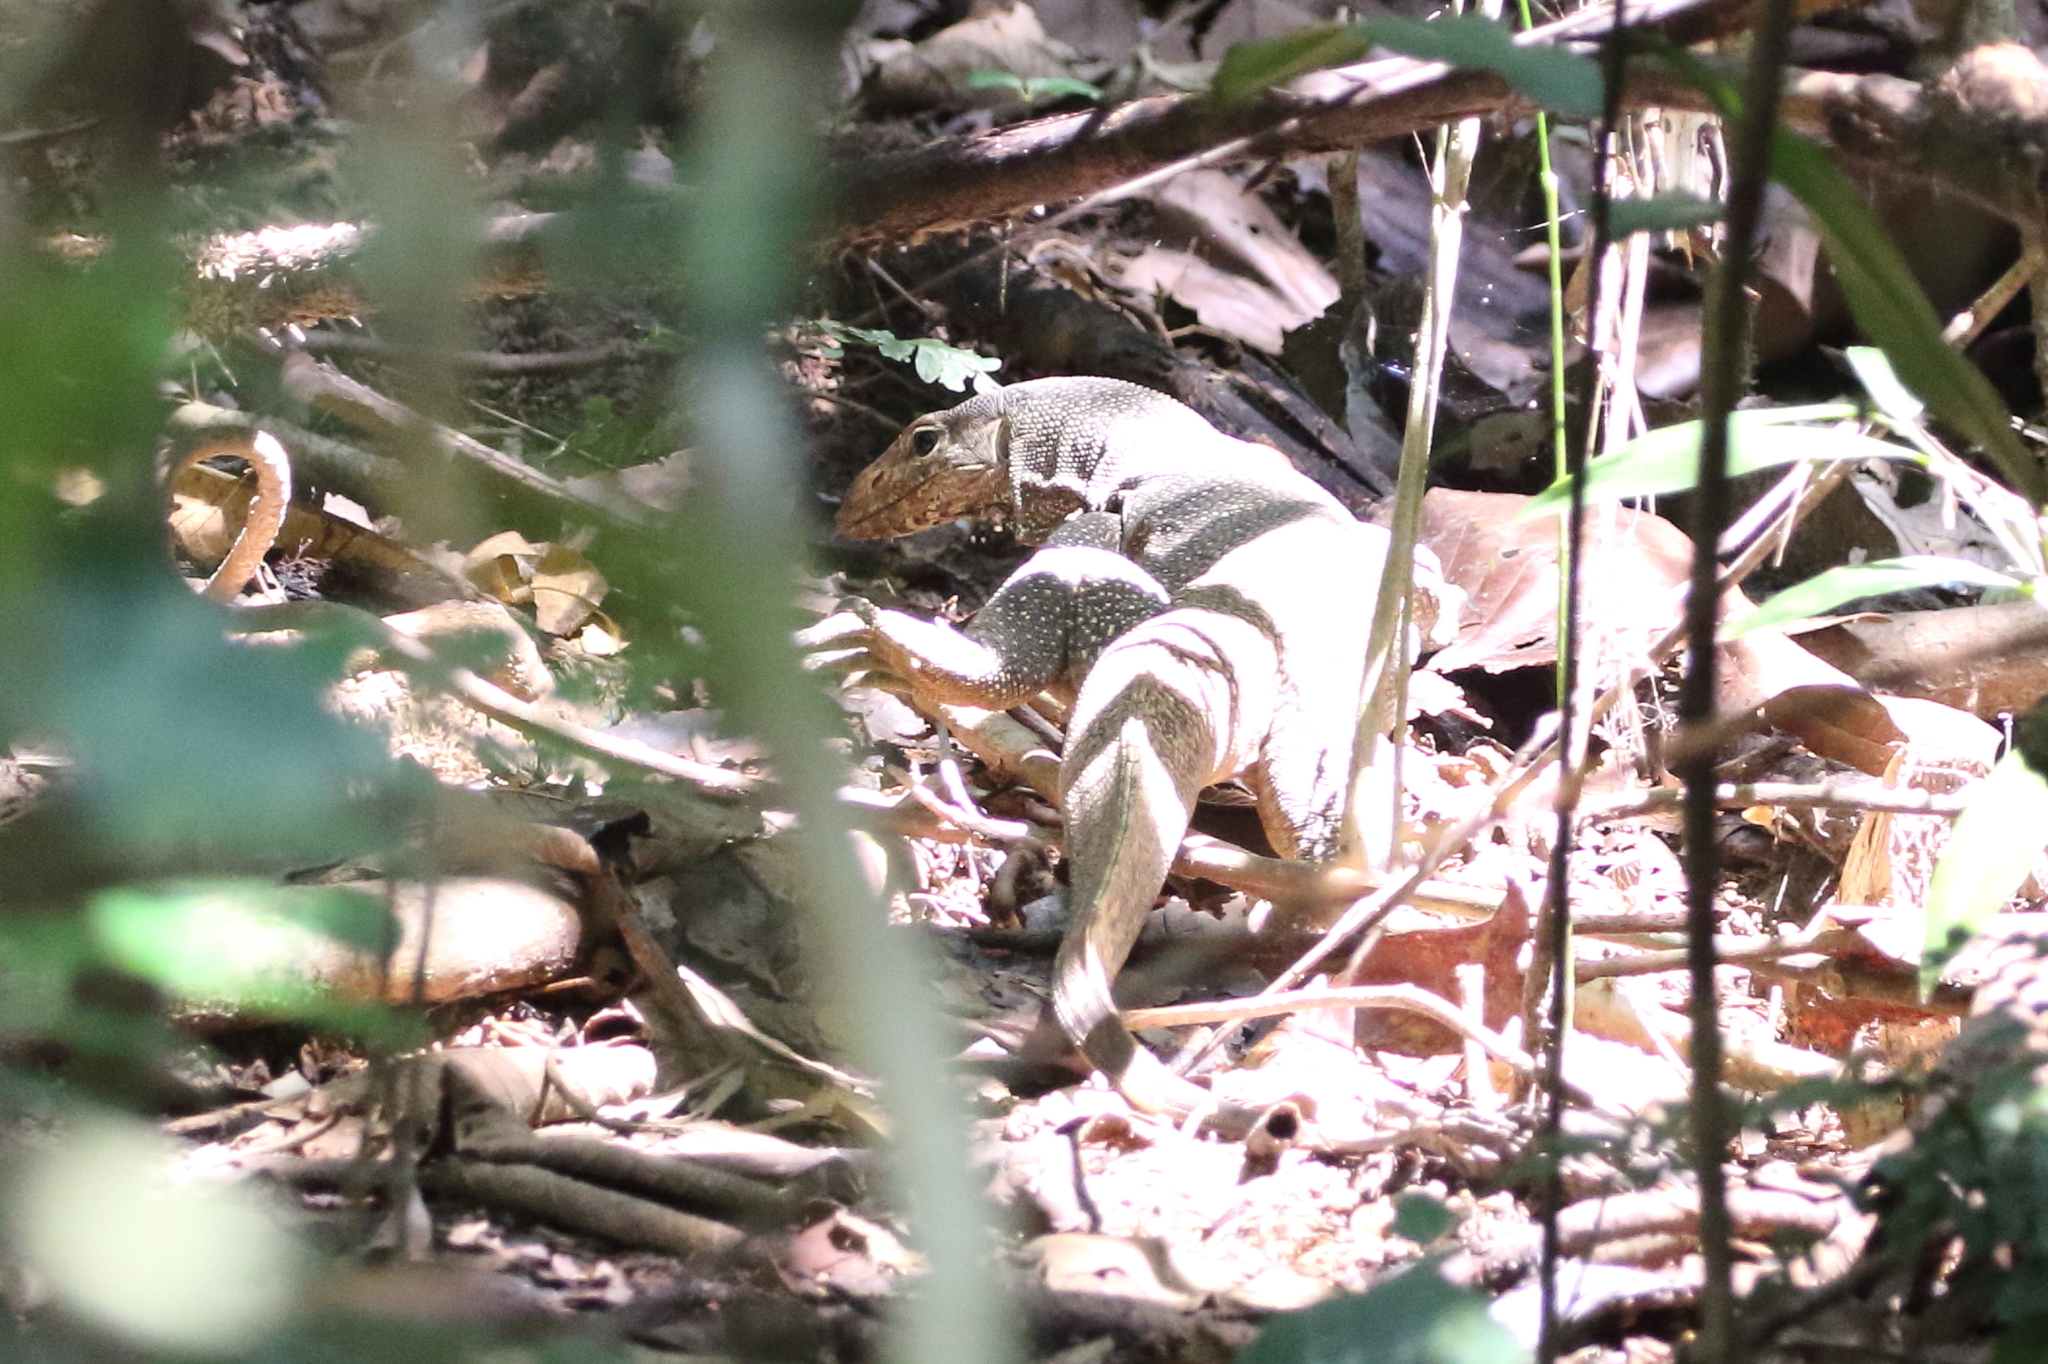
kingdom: Animalia
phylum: Chordata
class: Squamata
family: Varanidae
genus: Varanus
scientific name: Varanus nebulosus
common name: Clouded monitor
